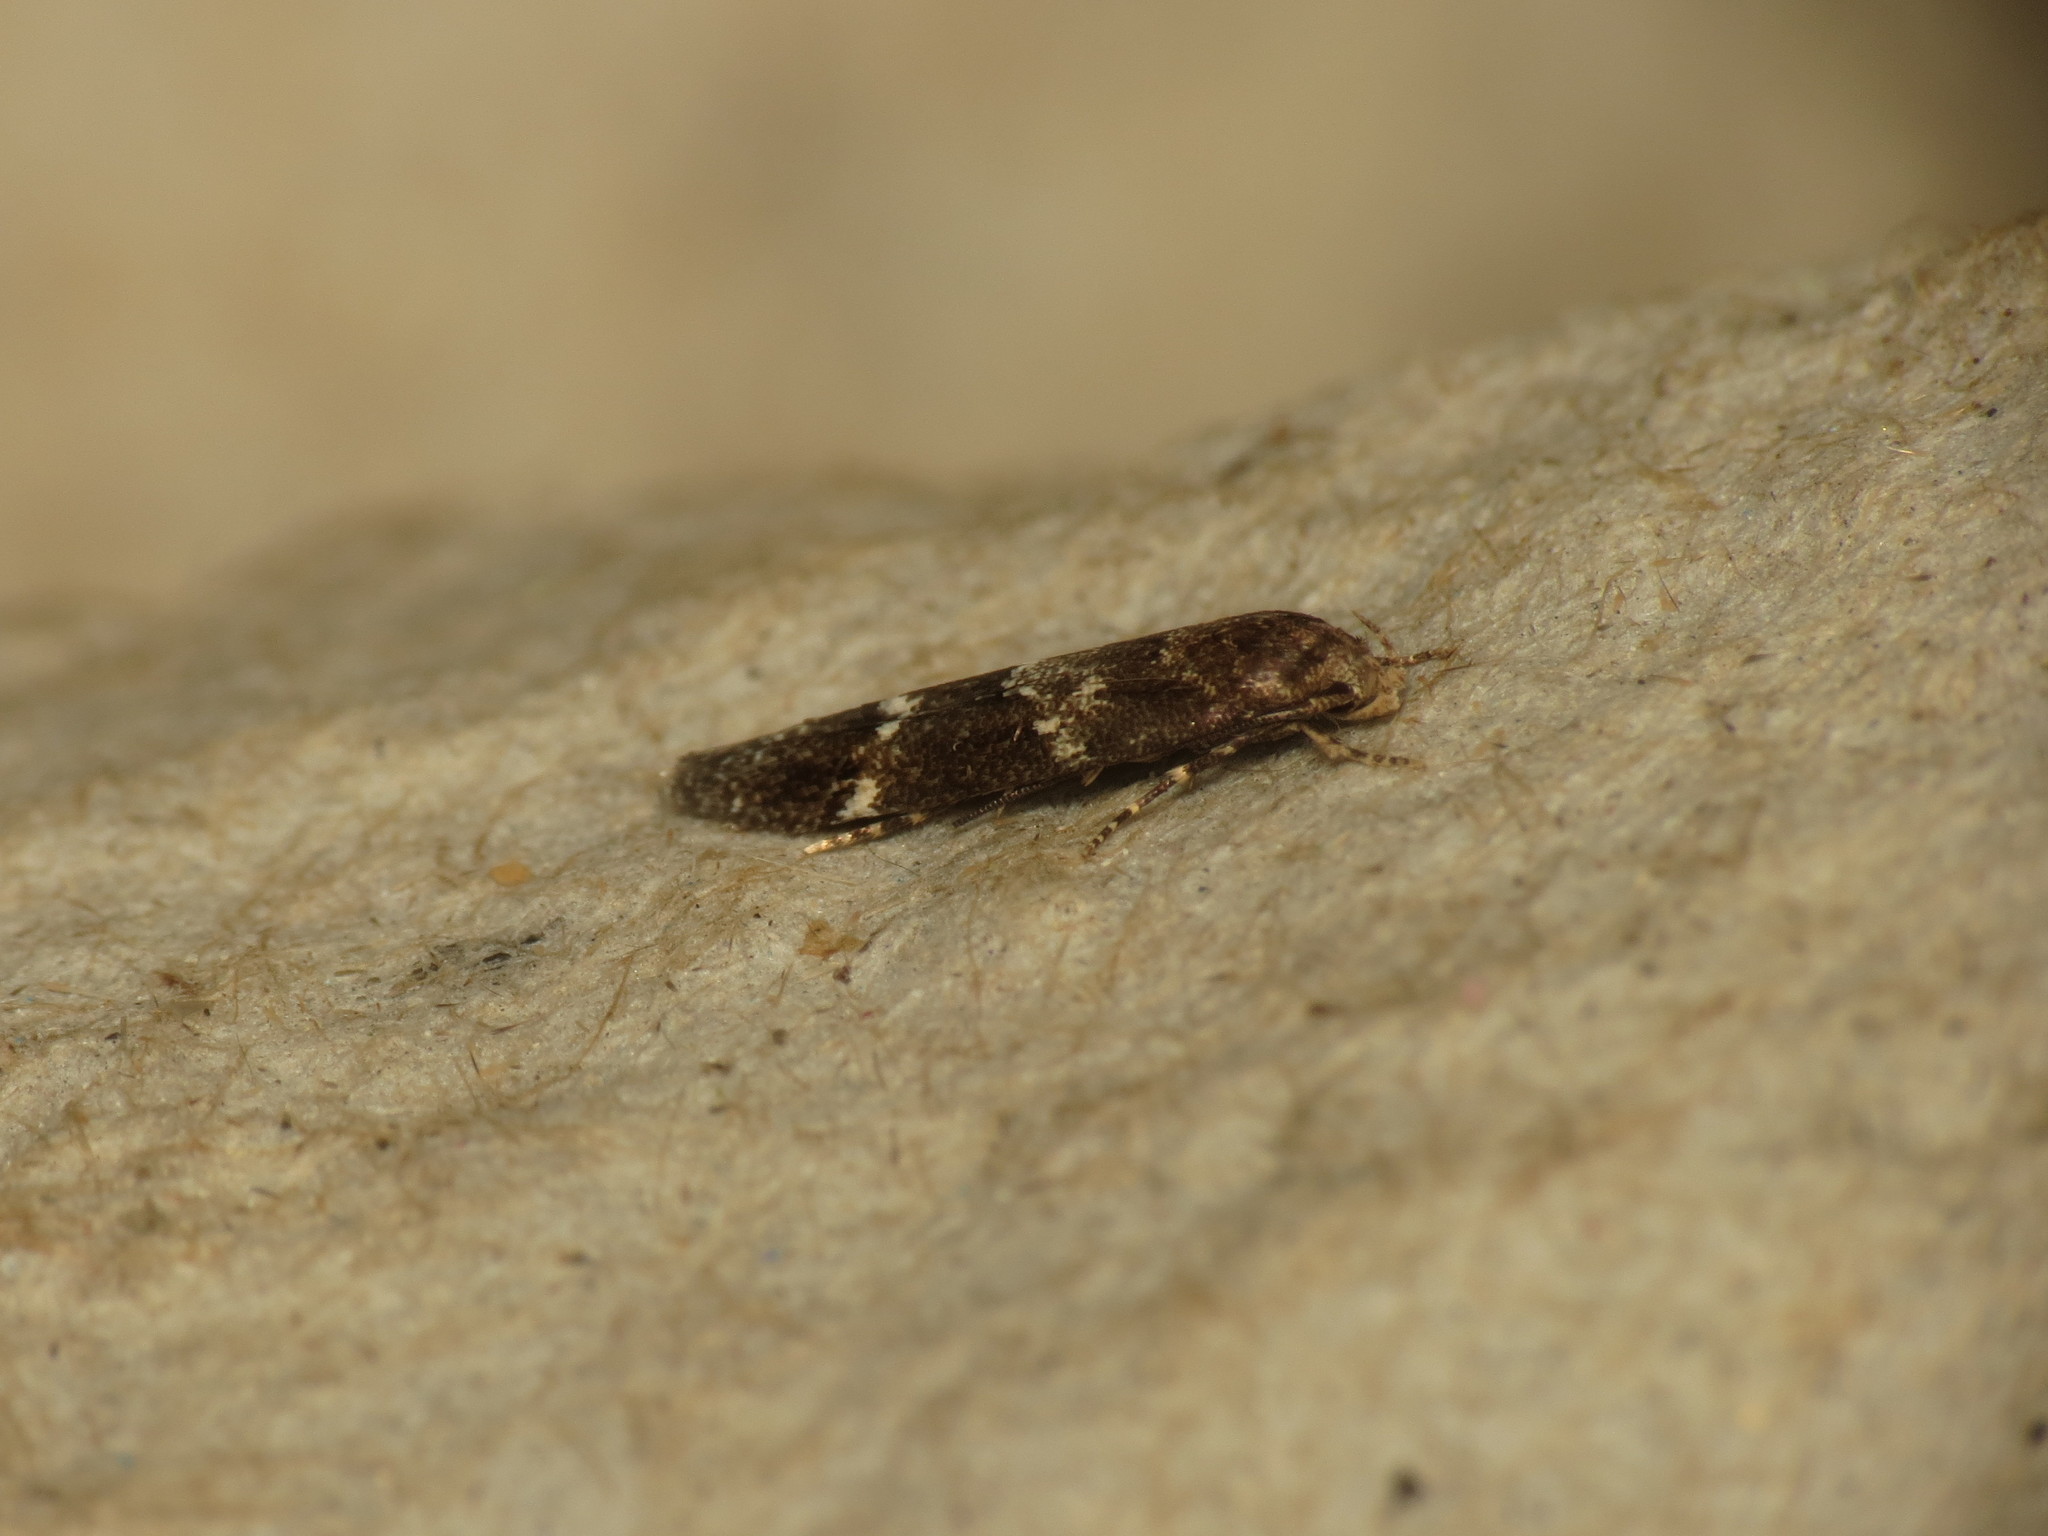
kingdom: Animalia
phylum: Arthropoda
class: Insecta
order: Lepidoptera
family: Momphidae
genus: Mompha
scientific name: Mompha subbistrigella
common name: Garden cosmet
